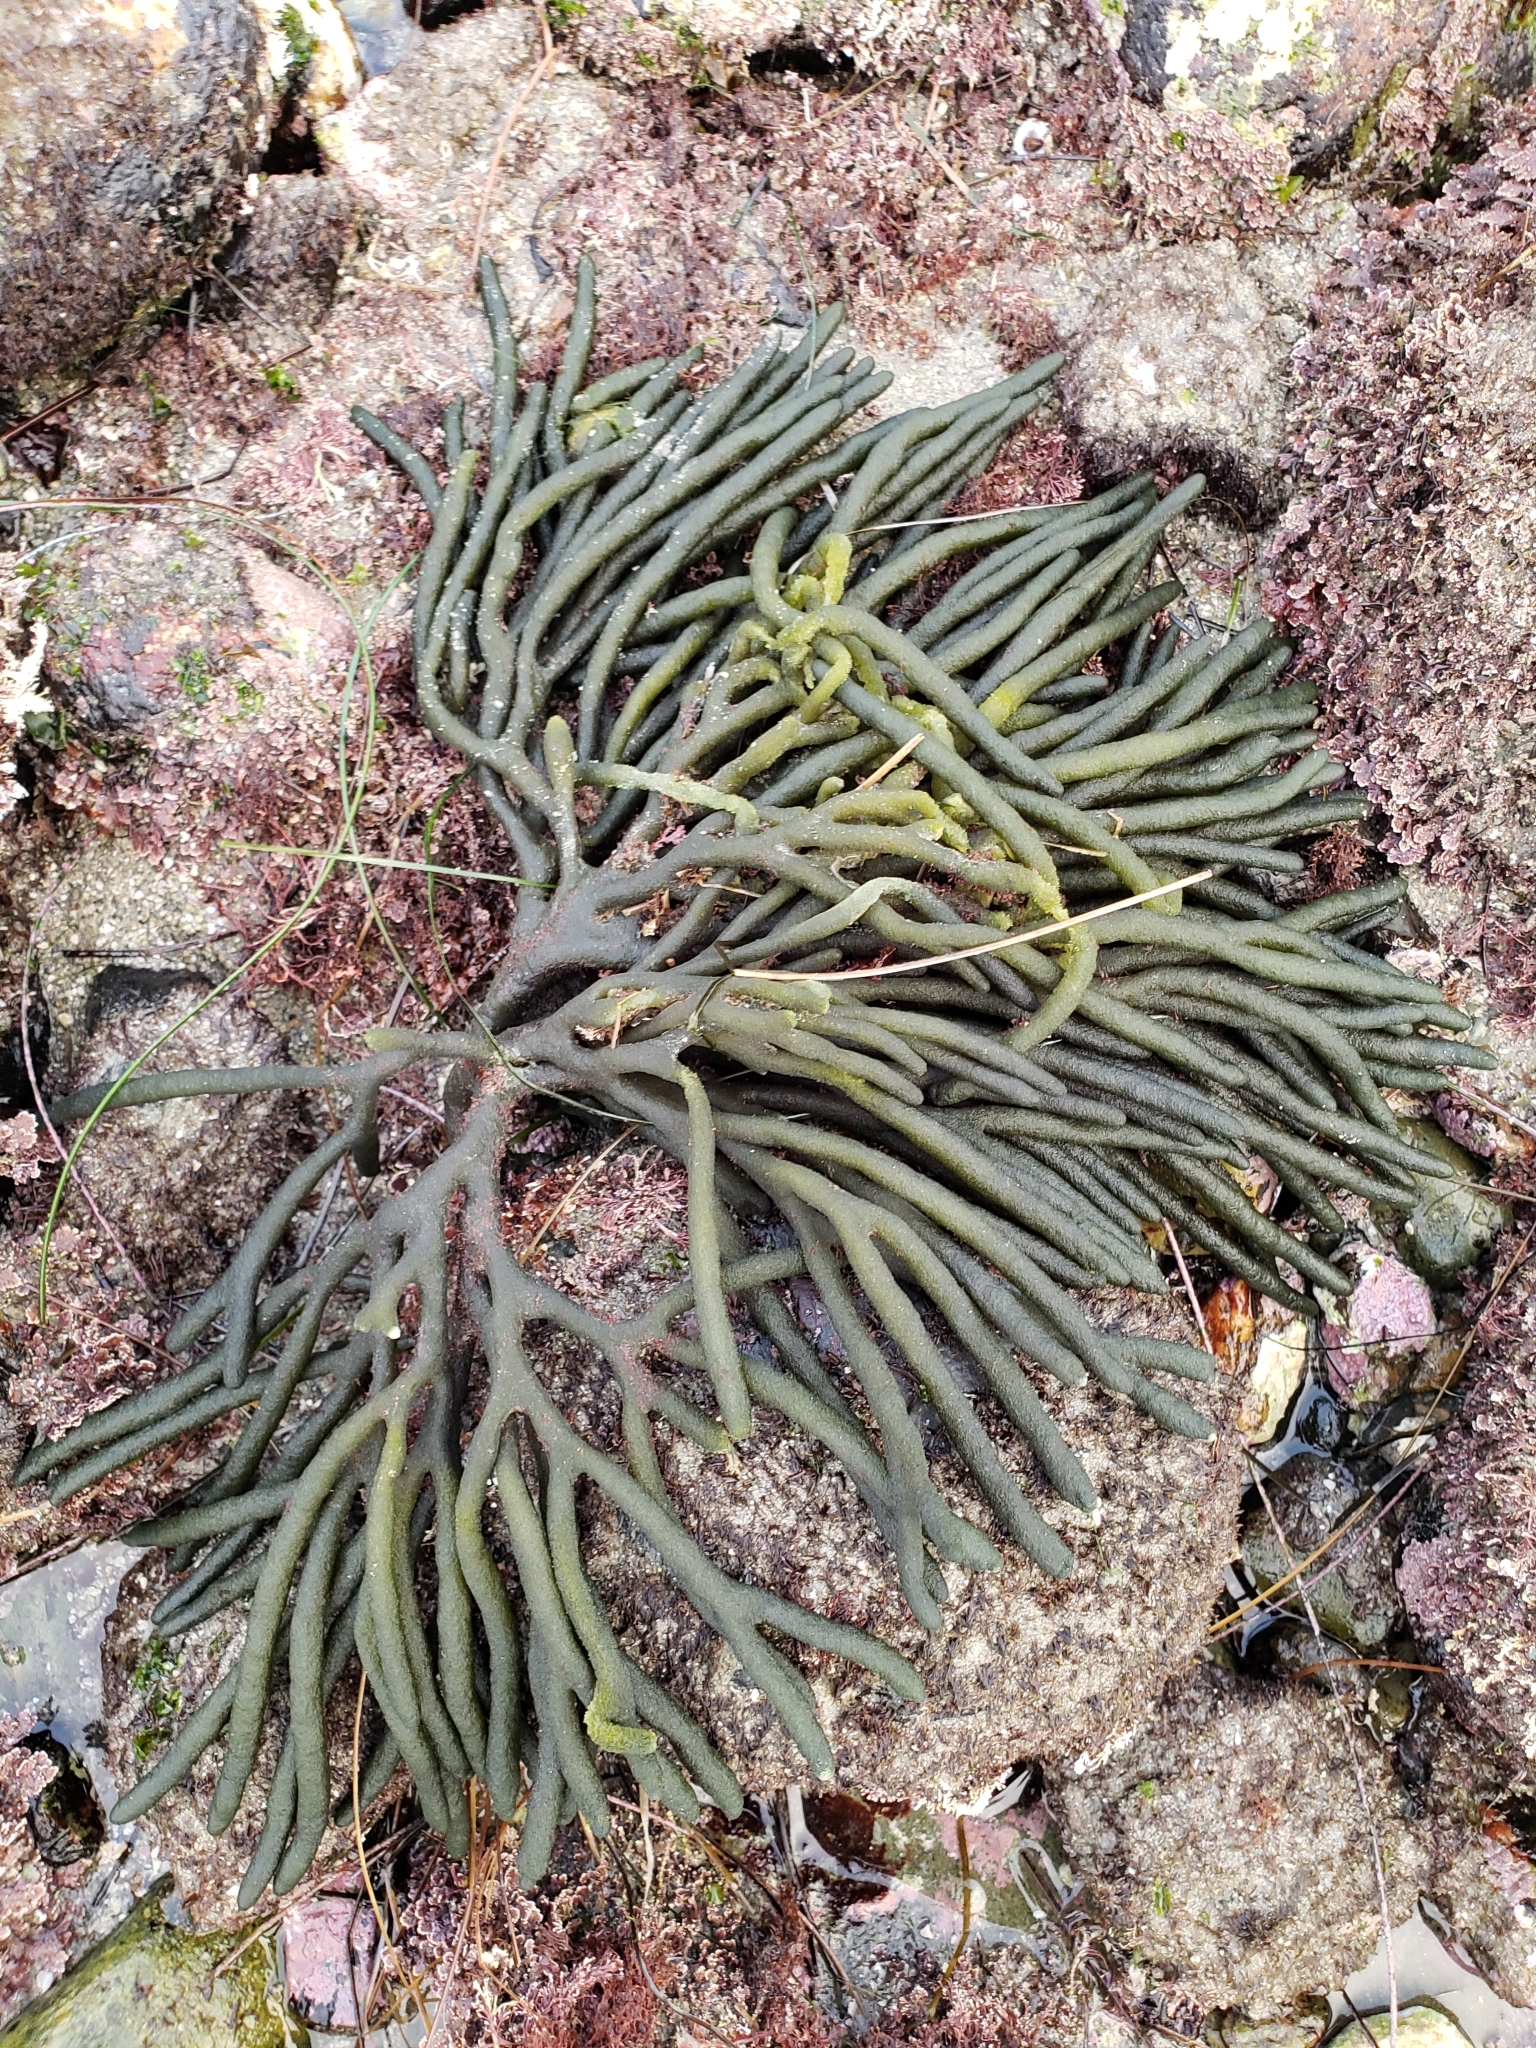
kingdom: Plantae
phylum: Chlorophyta
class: Ulvophyceae
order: Bryopsidales
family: Codiaceae
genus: Codium
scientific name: Codium fragile
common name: Dead man's fingers
